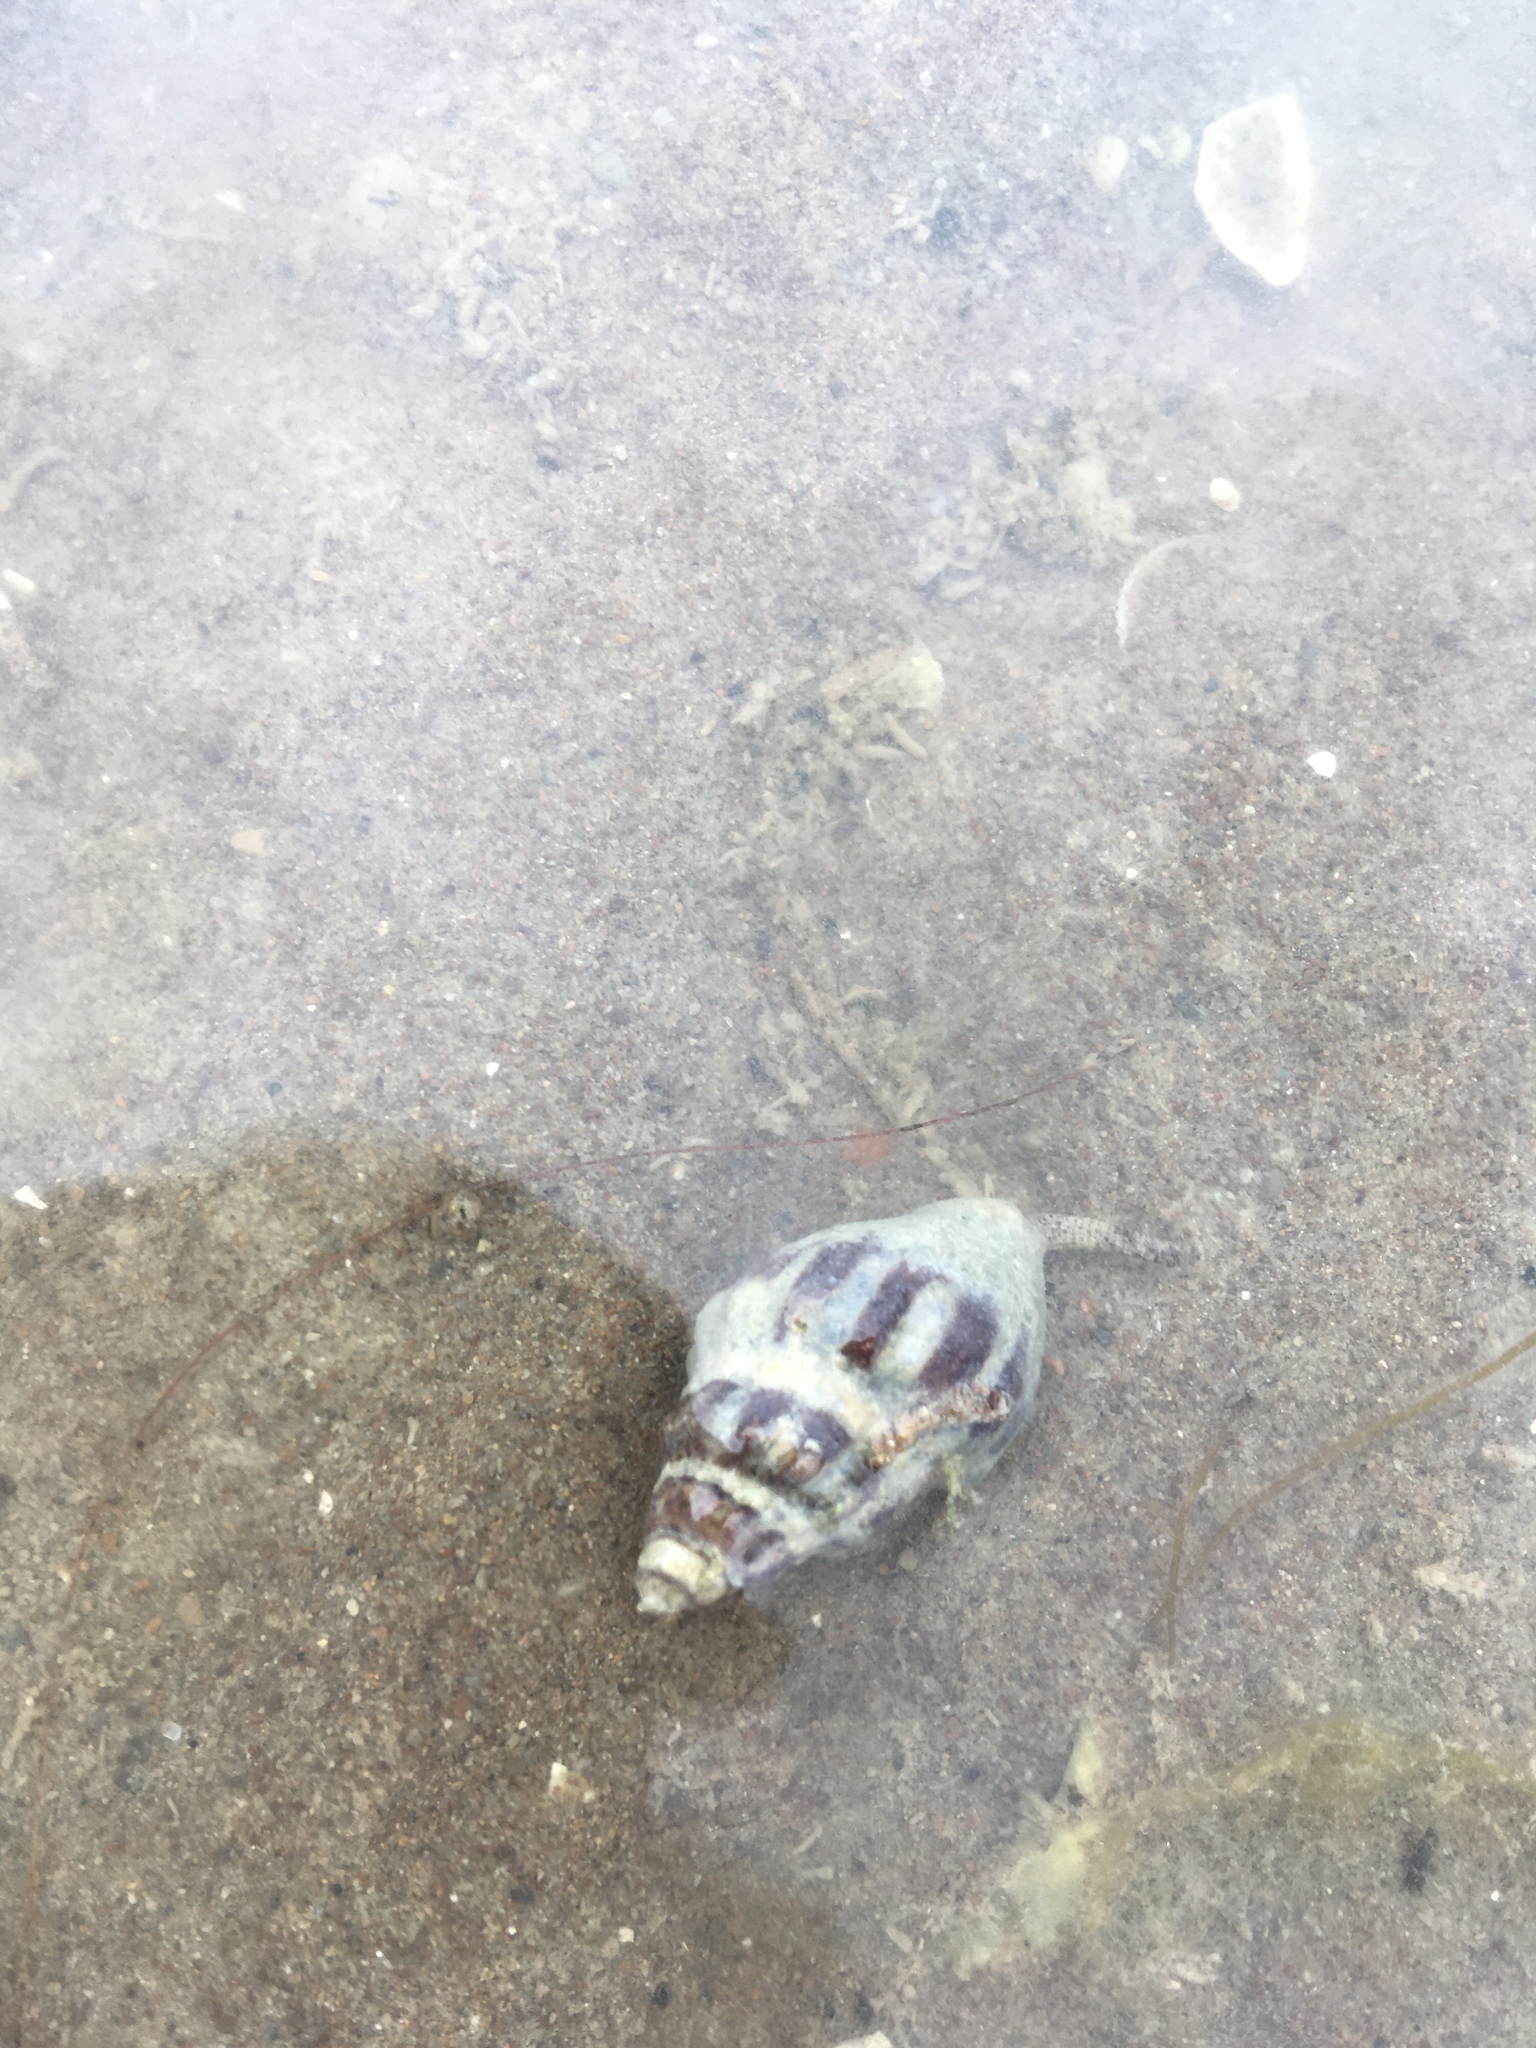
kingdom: Animalia
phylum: Mollusca
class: Gastropoda
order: Neogastropoda
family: Cominellidae
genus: Cominella
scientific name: Cominella glandiformis
